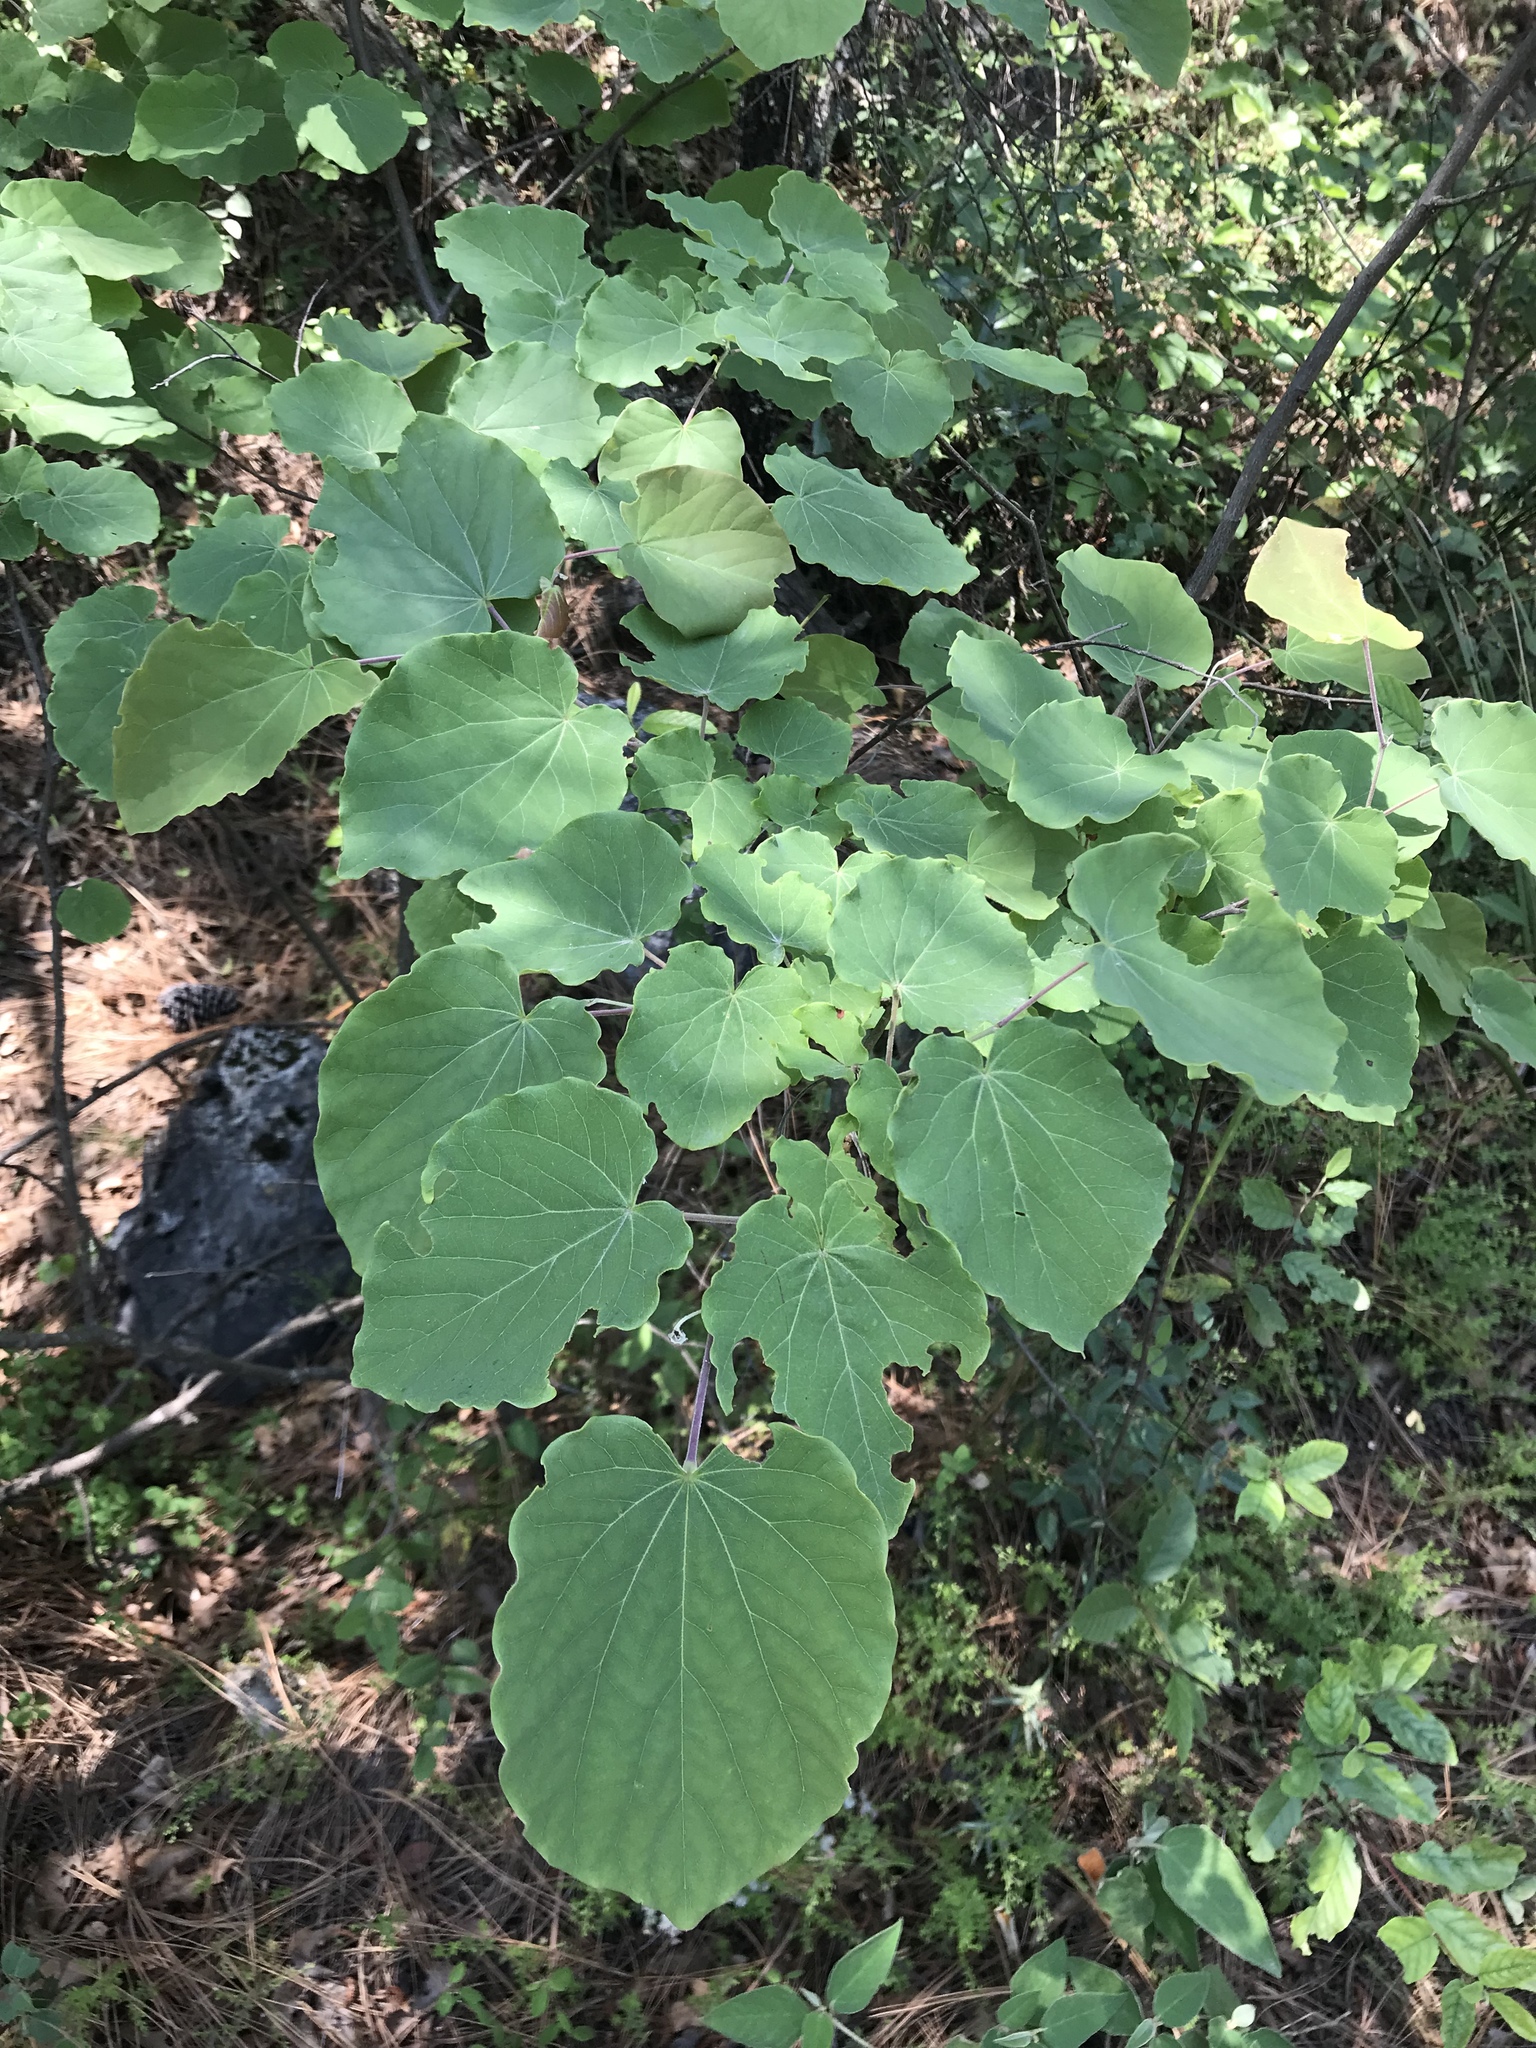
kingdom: Plantae
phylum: Tracheophyta
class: Magnoliopsida
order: Fabales
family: Fabaceae
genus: Cercis
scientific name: Cercis canadensis
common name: Eastern redbud
